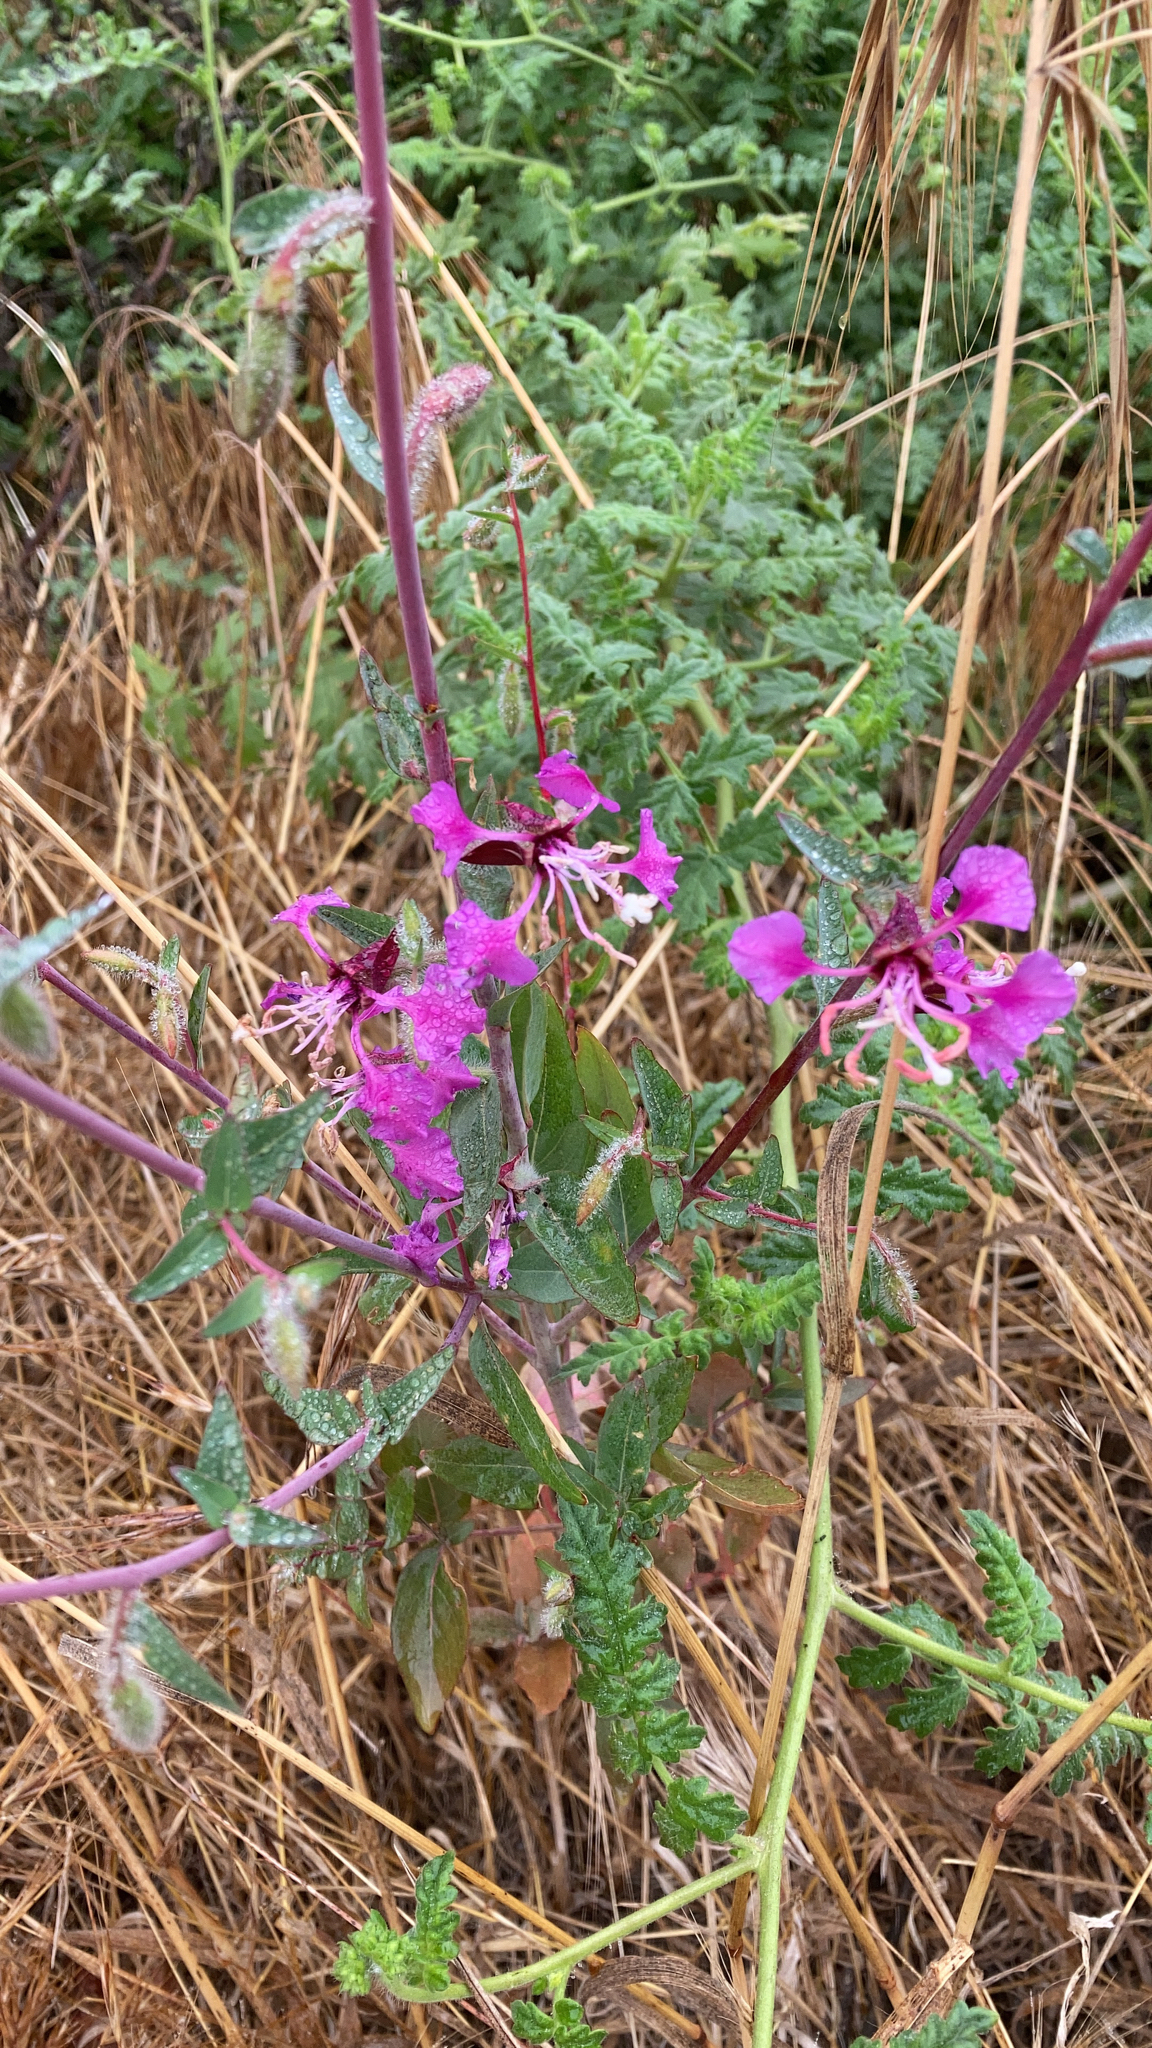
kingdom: Plantae
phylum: Tracheophyta
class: Magnoliopsida
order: Myrtales
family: Onagraceae
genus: Clarkia
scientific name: Clarkia unguiculata
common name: Clarkia
